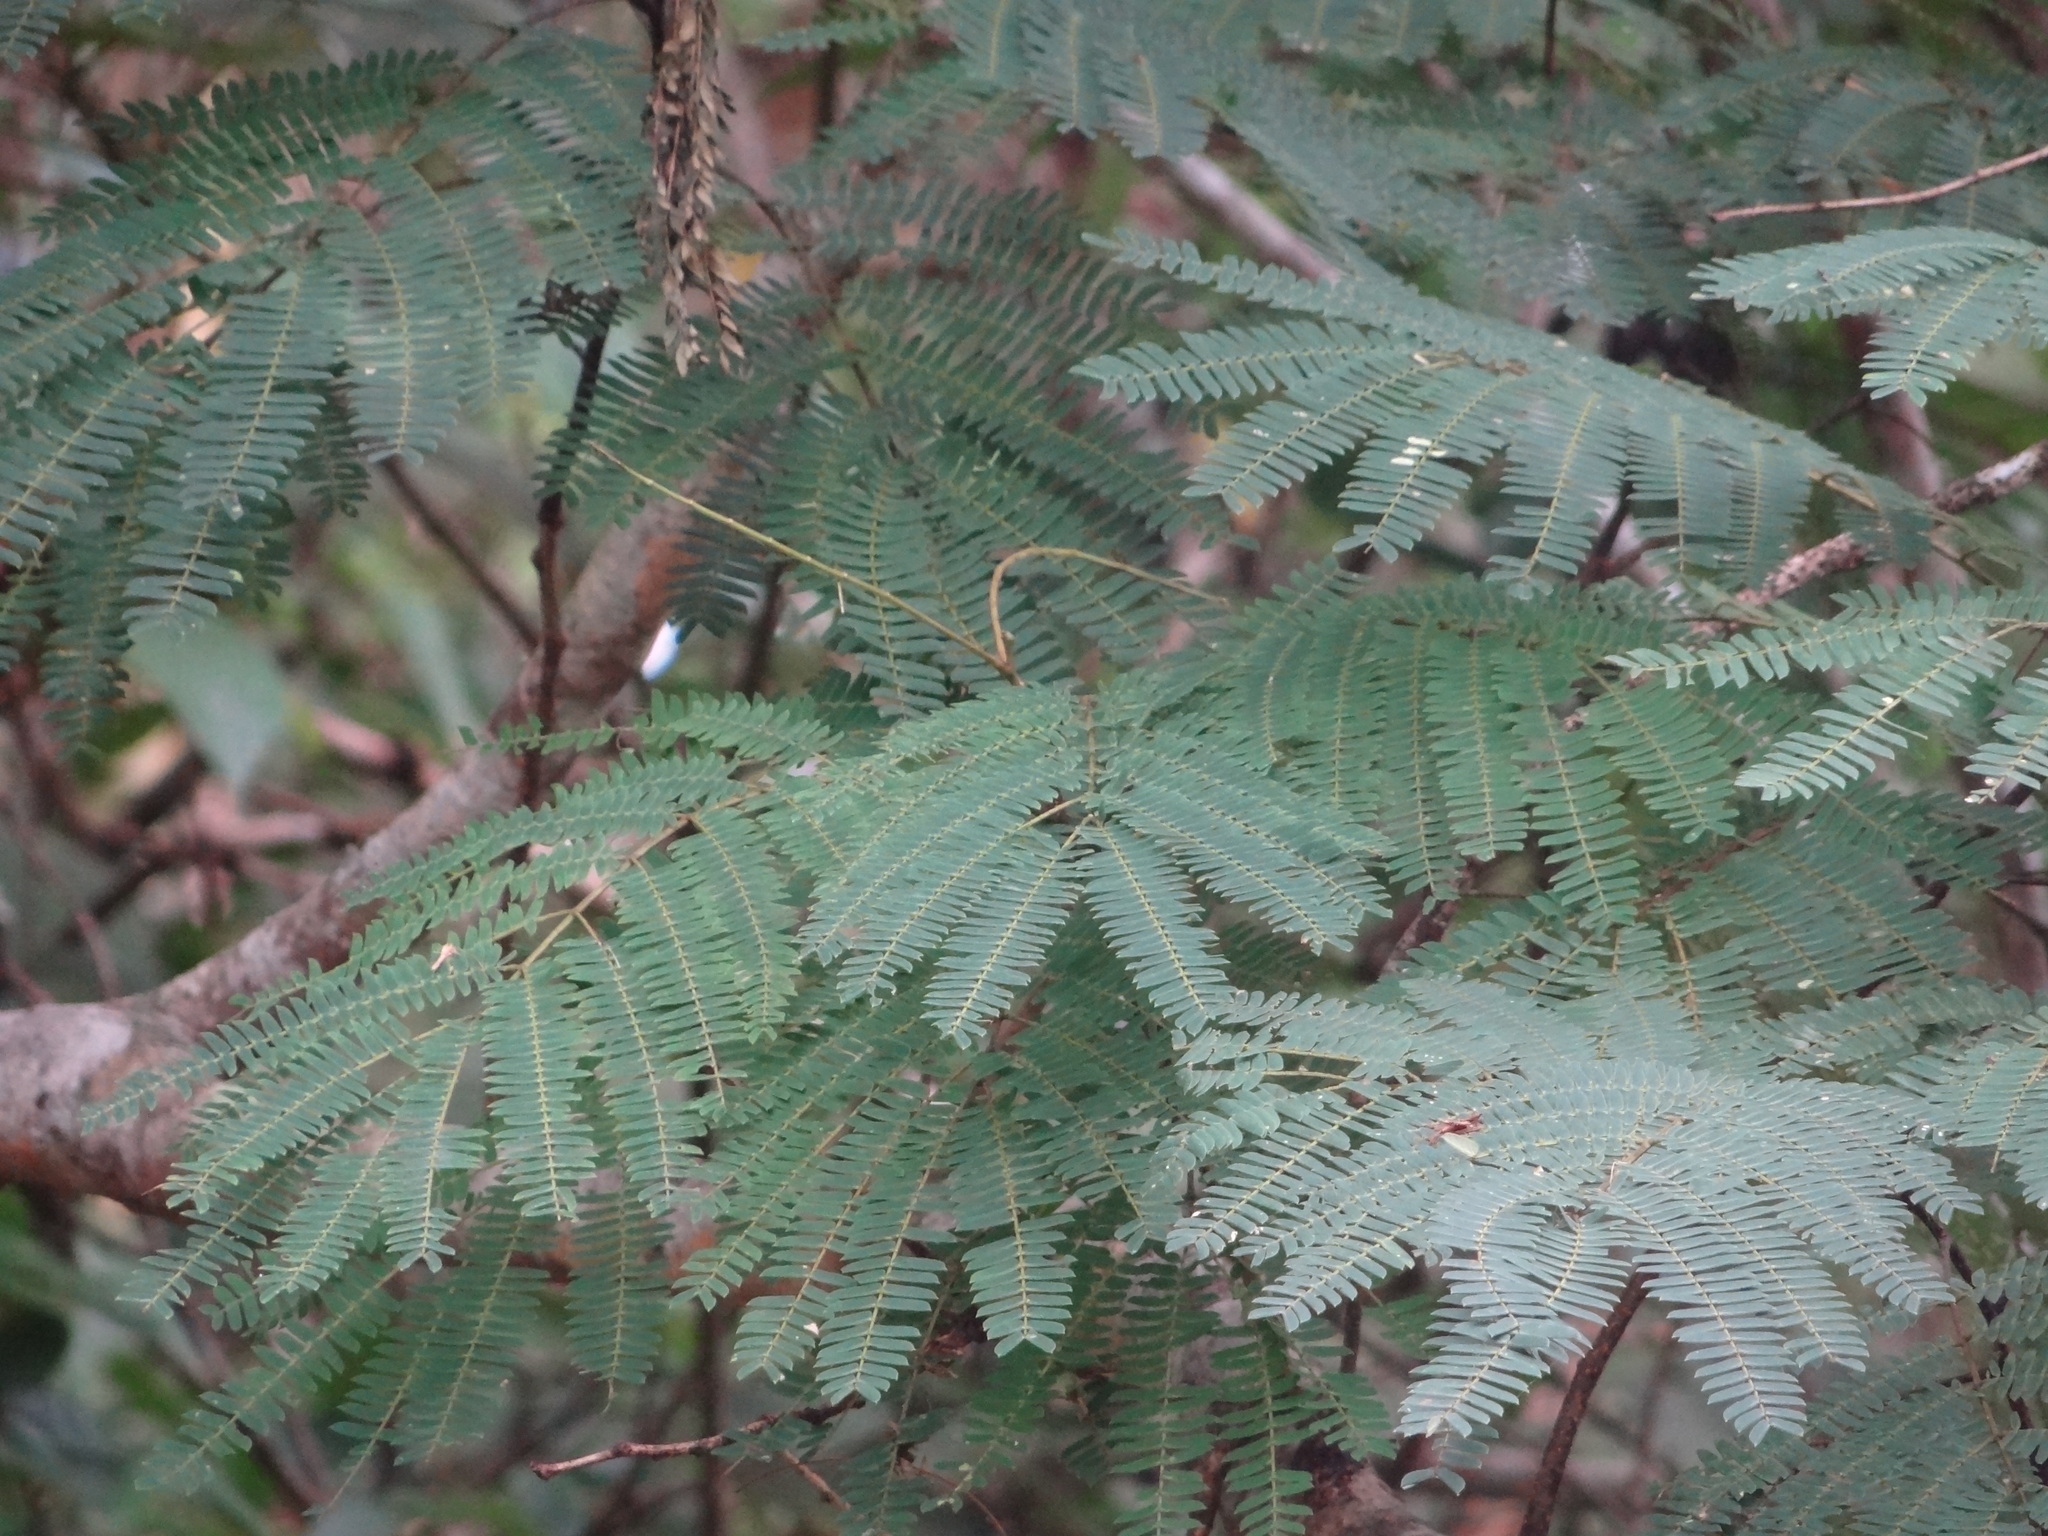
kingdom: Plantae
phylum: Tracheophyta
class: Magnoliopsida
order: Fabales
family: Fabaceae
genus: Albizia
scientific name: Albizia julibrissin
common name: Silktree
